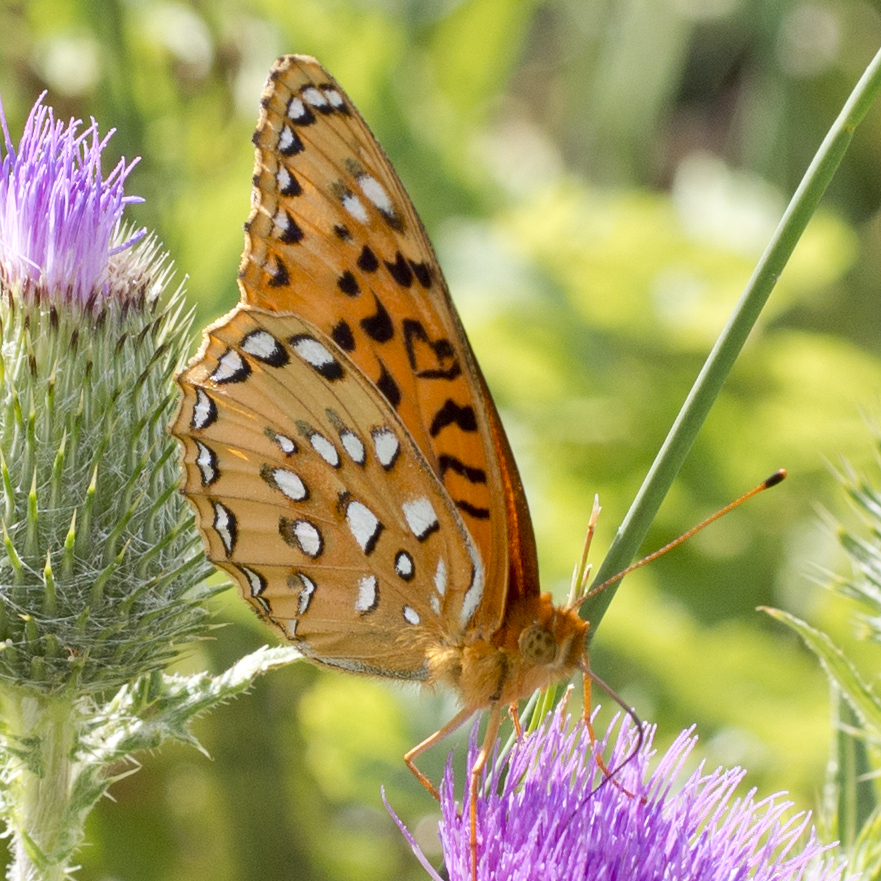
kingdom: Animalia
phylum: Arthropoda
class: Insecta
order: Lepidoptera
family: Nymphalidae
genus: Speyeria
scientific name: Speyeria nokomis
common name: Nokomis fritillary
